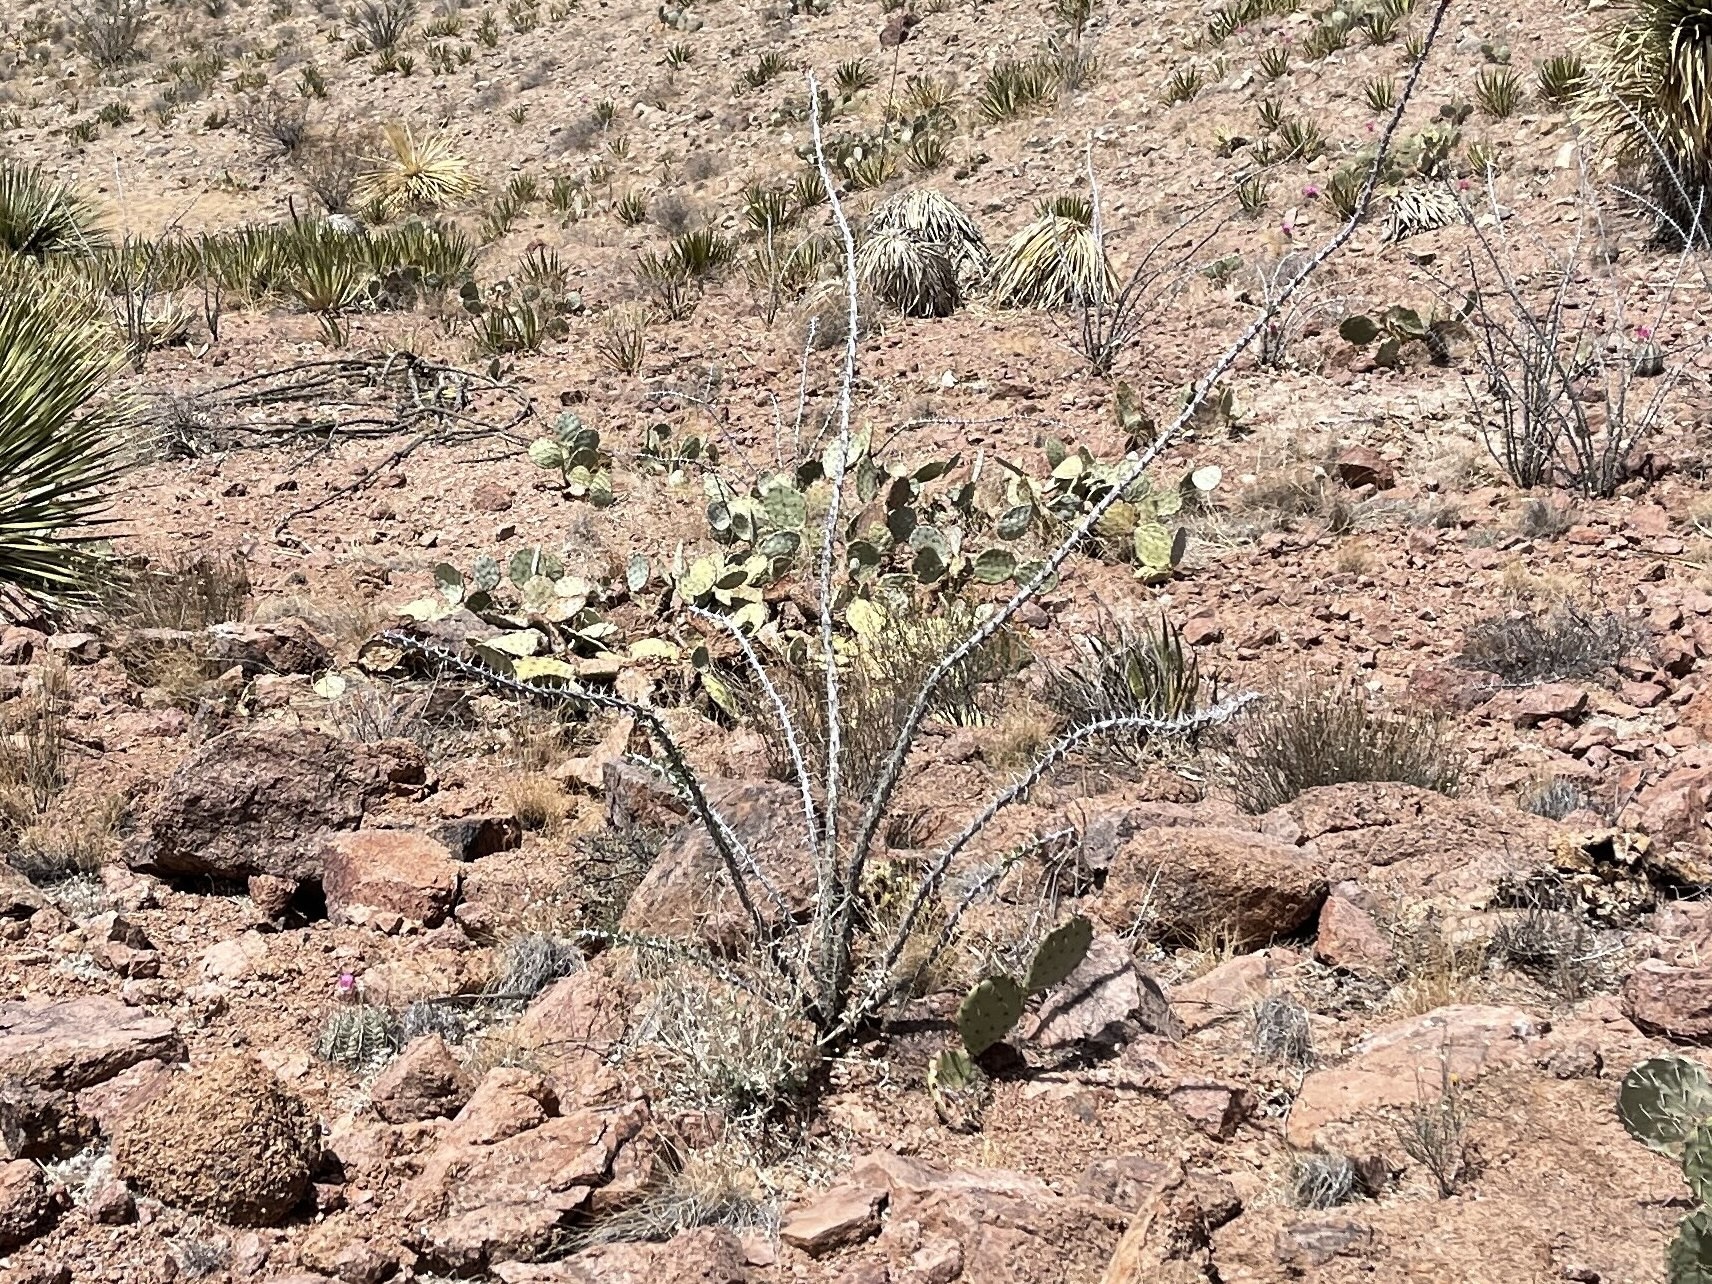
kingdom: Plantae
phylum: Tracheophyta
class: Magnoliopsida
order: Ericales
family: Fouquieriaceae
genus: Fouquieria
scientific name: Fouquieria splendens
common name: Vine-cactus
